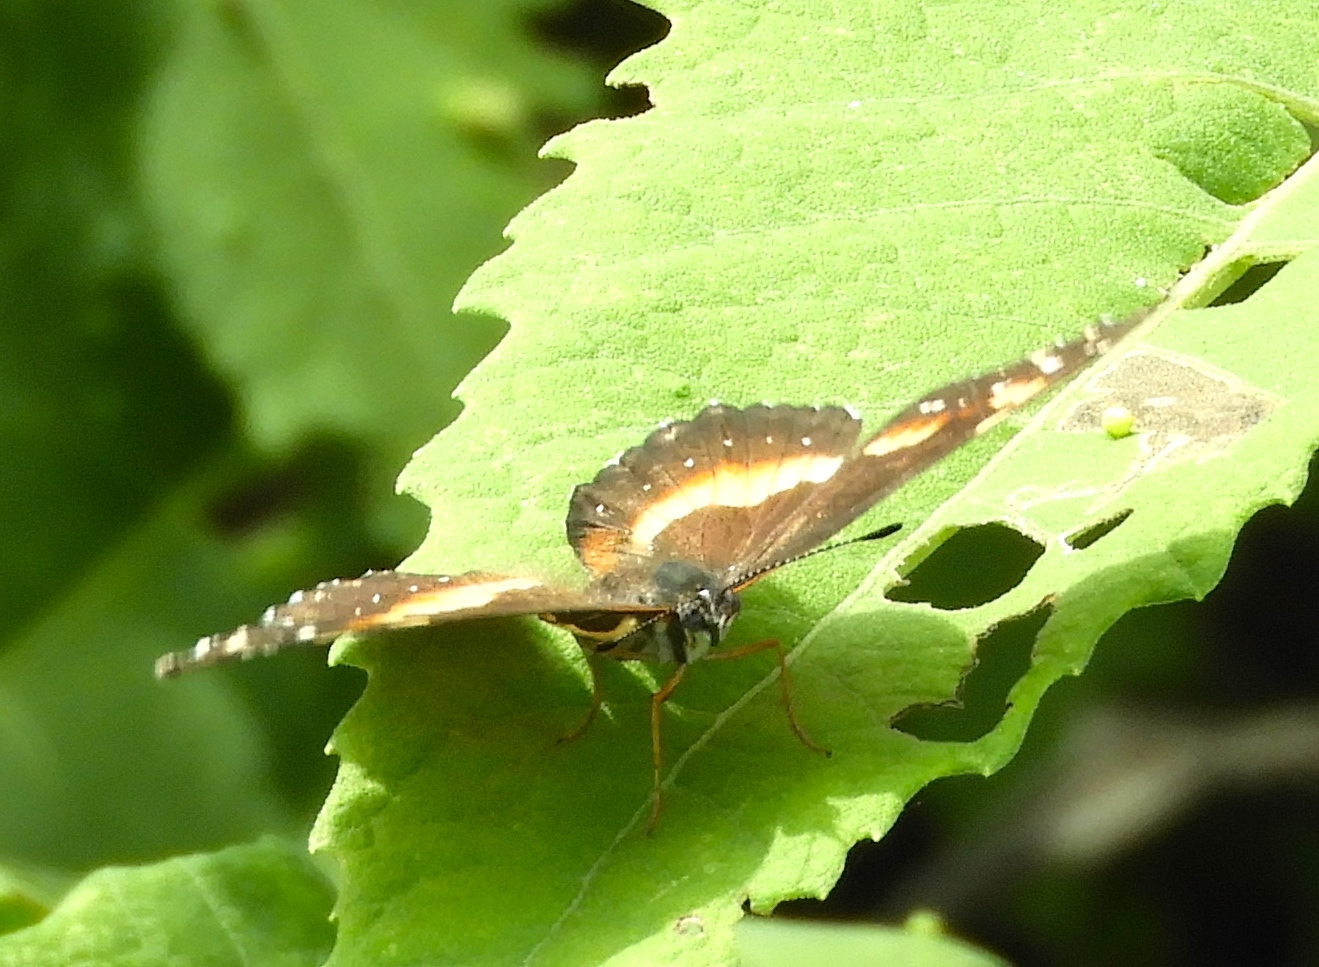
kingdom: Animalia
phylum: Arthropoda
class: Insecta
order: Lepidoptera
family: Nymphalidae
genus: Chlosyne
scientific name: Chlosyne lacinia
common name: Bordered patch
